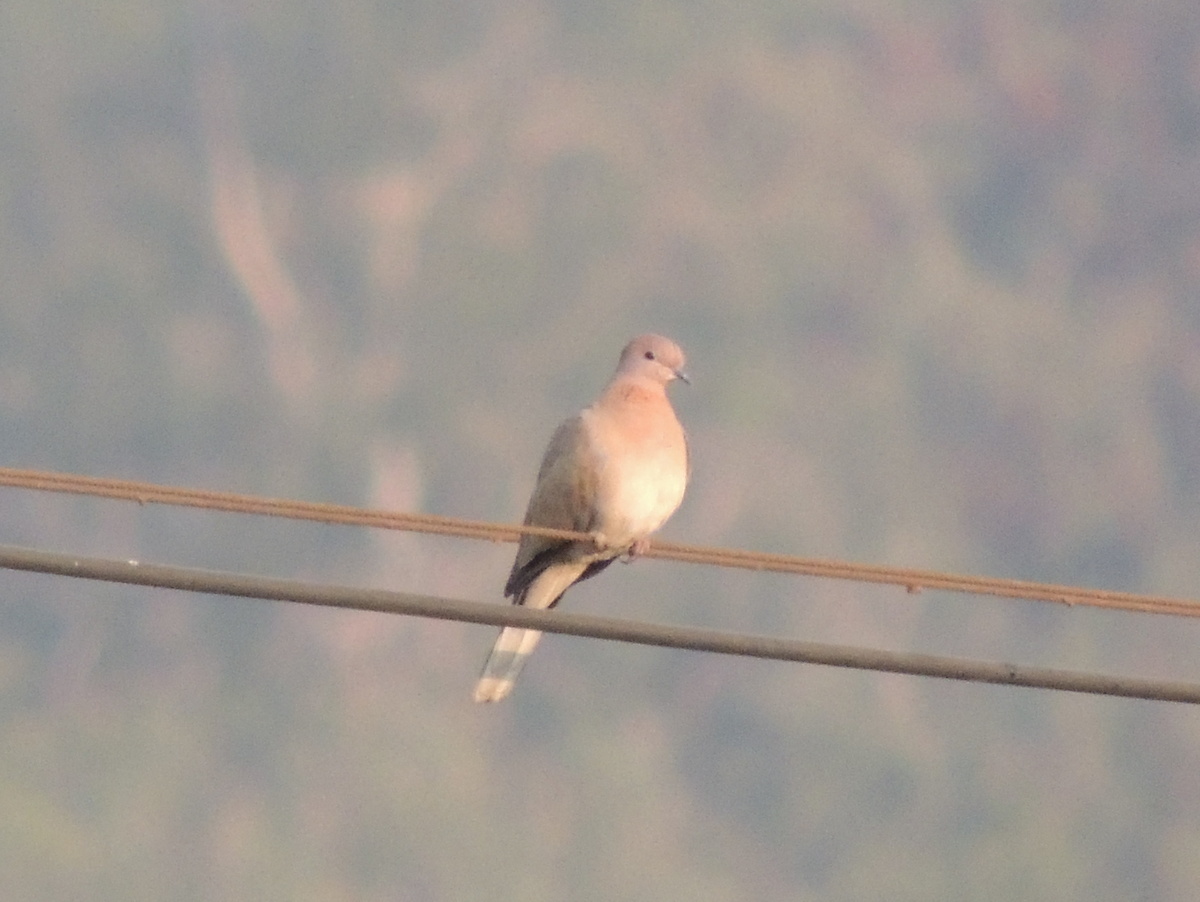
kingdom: Animalia
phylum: Chordata
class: Aves
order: Columbiformes
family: Columbidae
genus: Spilopelia
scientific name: Spilopelia senegalensis
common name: Laughing dove
